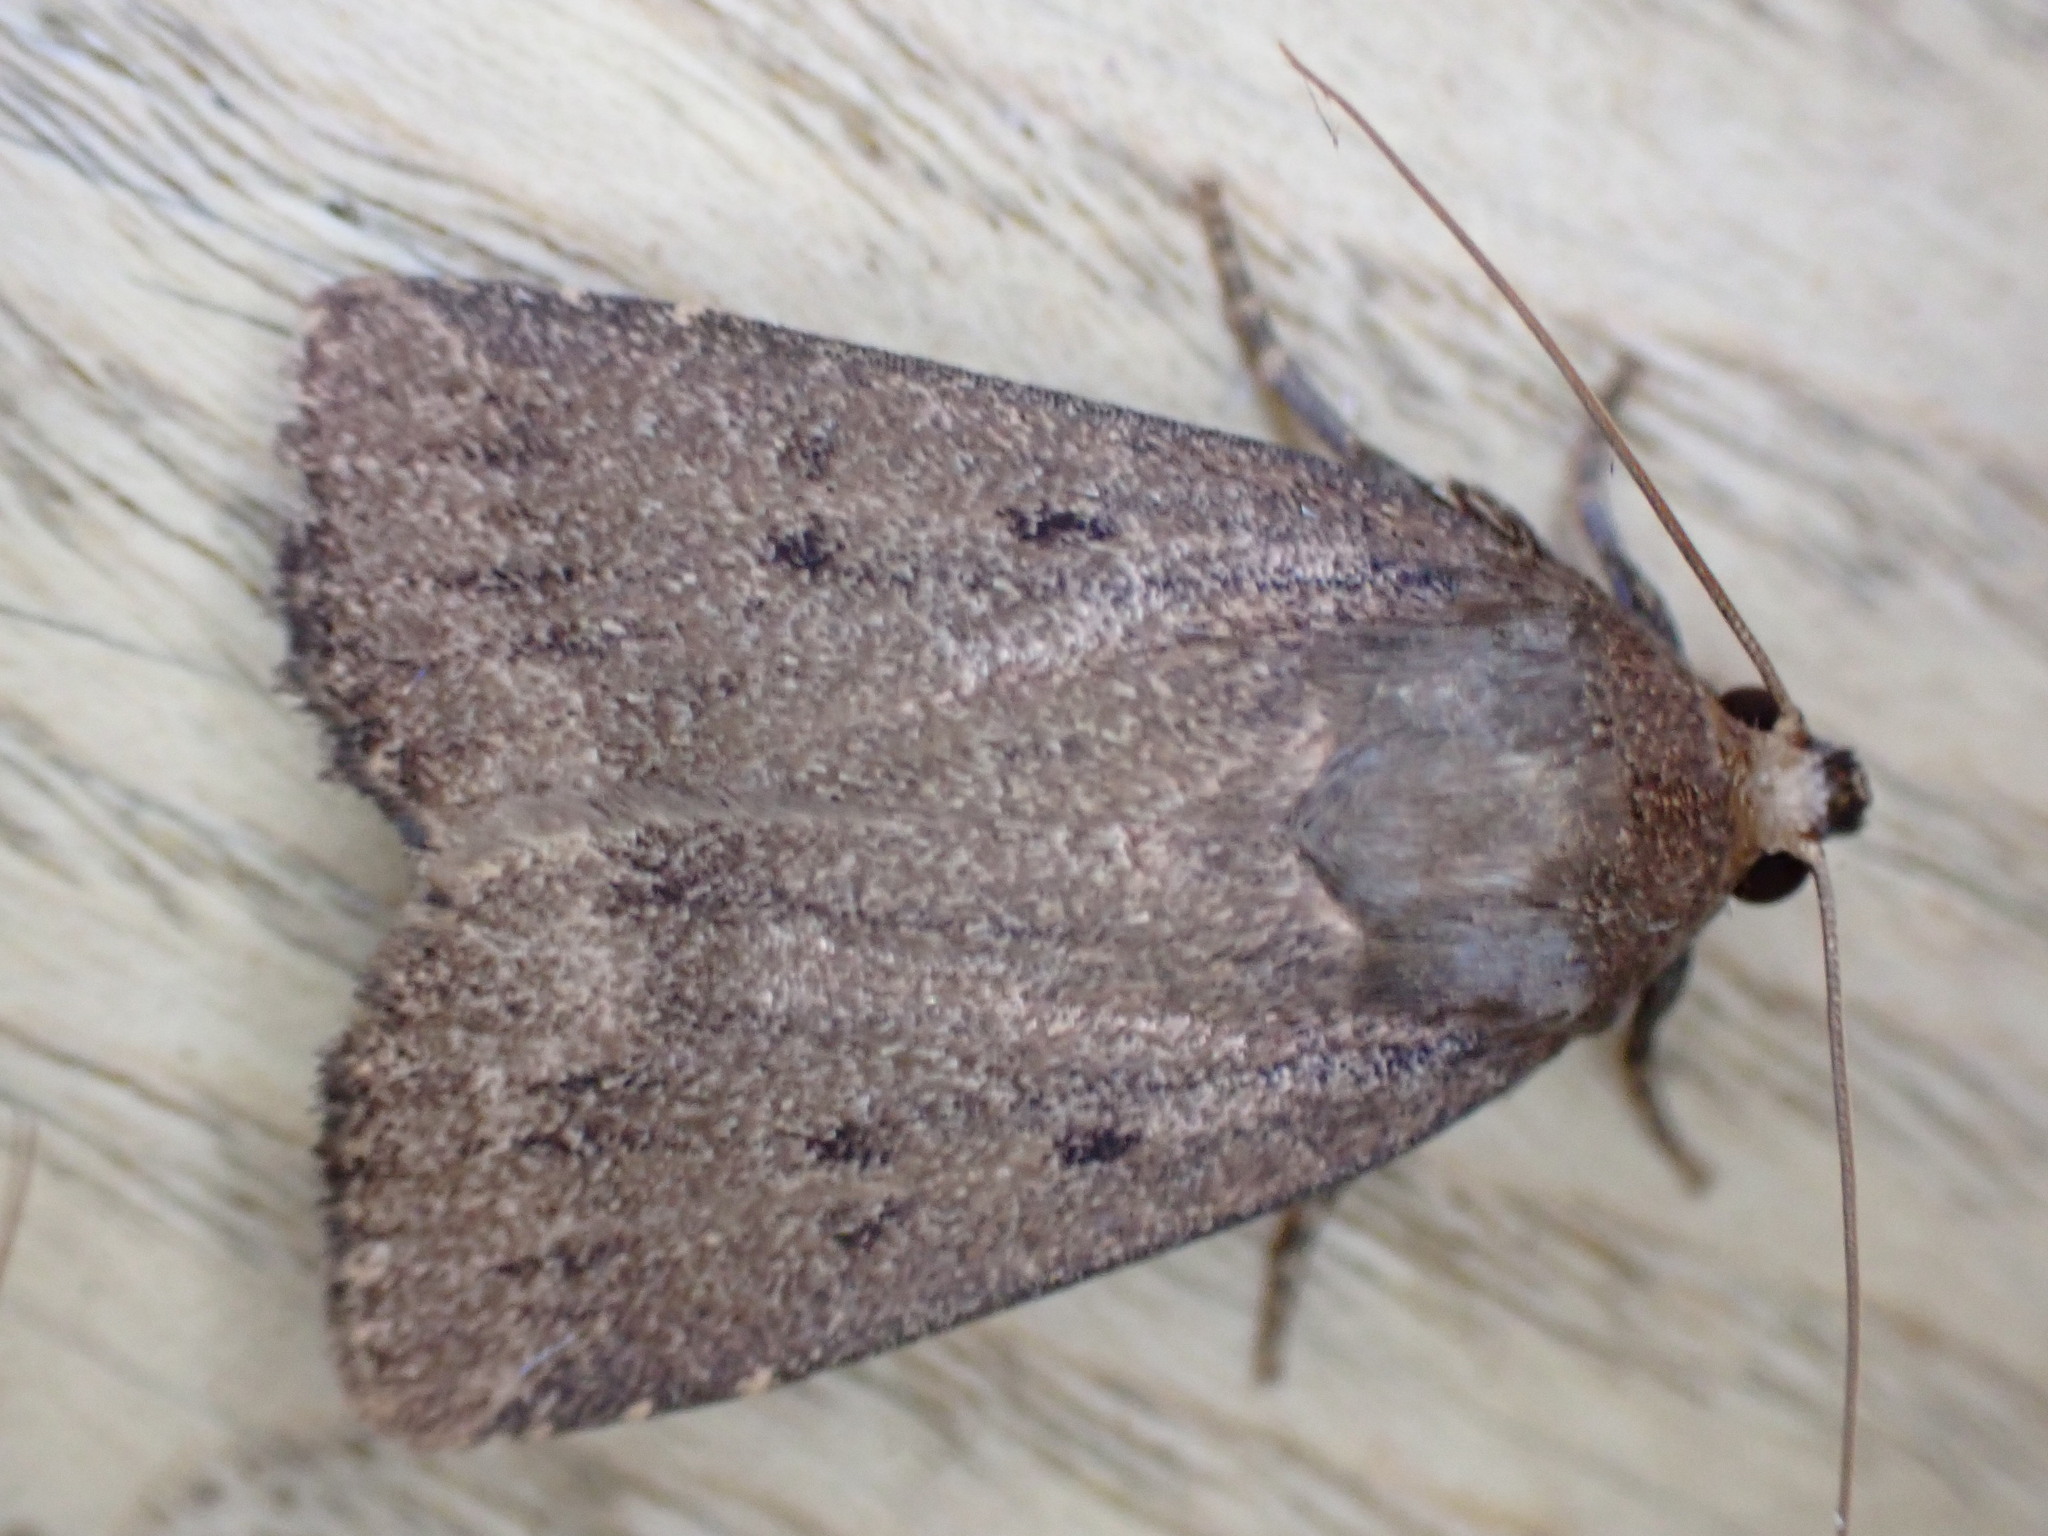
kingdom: Animalia
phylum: Arthropoda
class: Insecta
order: Lepidoptera
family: Noctuidae
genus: Amphipyra
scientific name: Amphipyra tragopoginis
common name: Mouse moth
